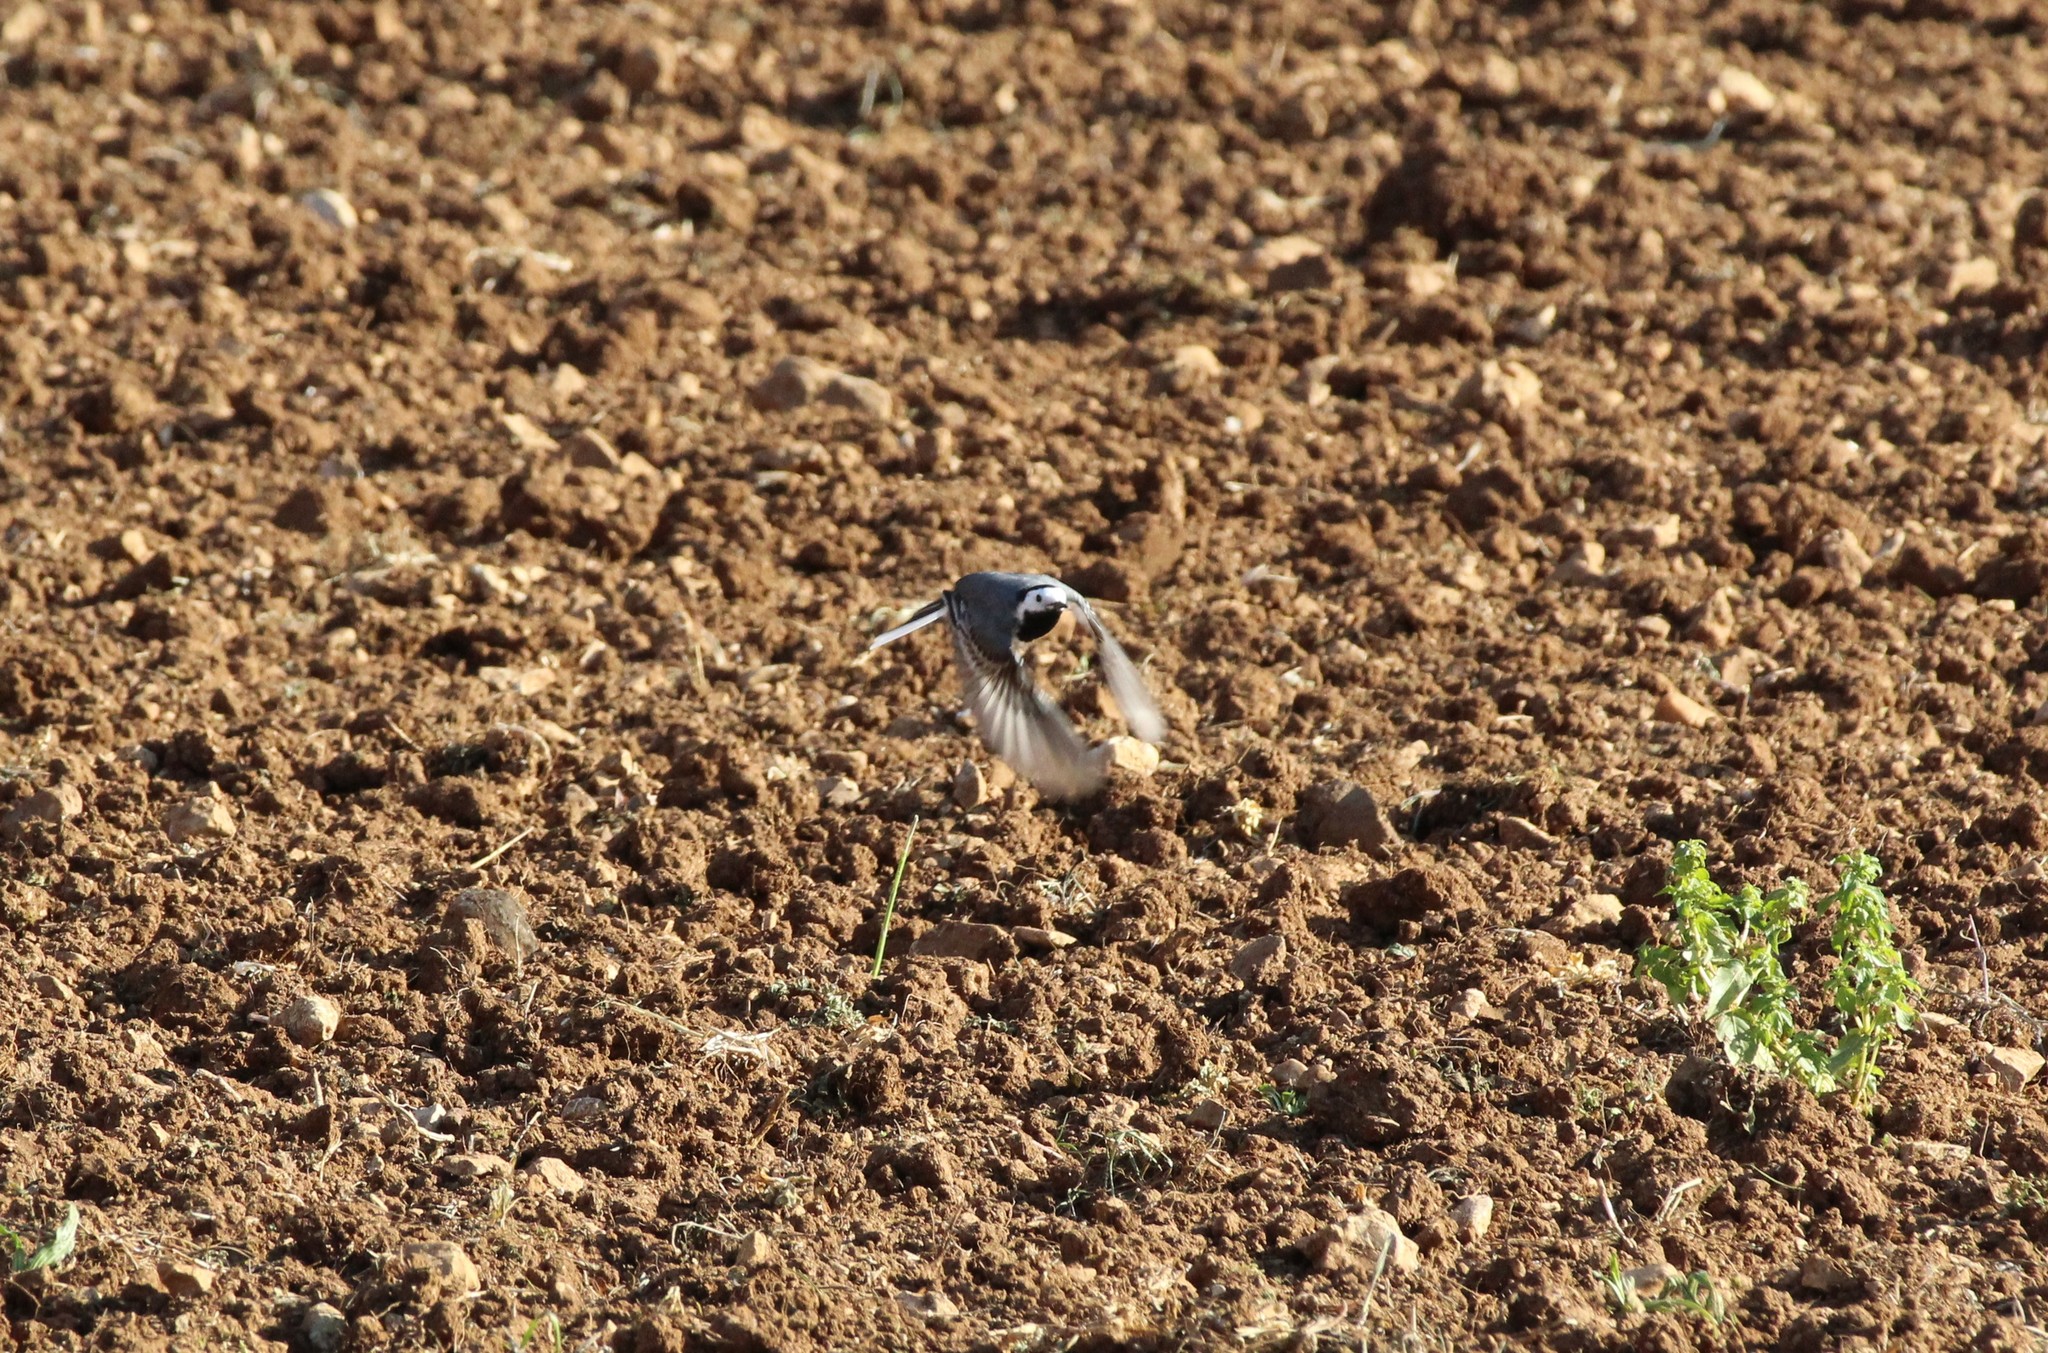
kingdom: Animalia
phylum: Chordata
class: Aves
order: Passeriformes
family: Motacillidae
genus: Motacilla
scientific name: Motacilla alba
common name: White wagtail
